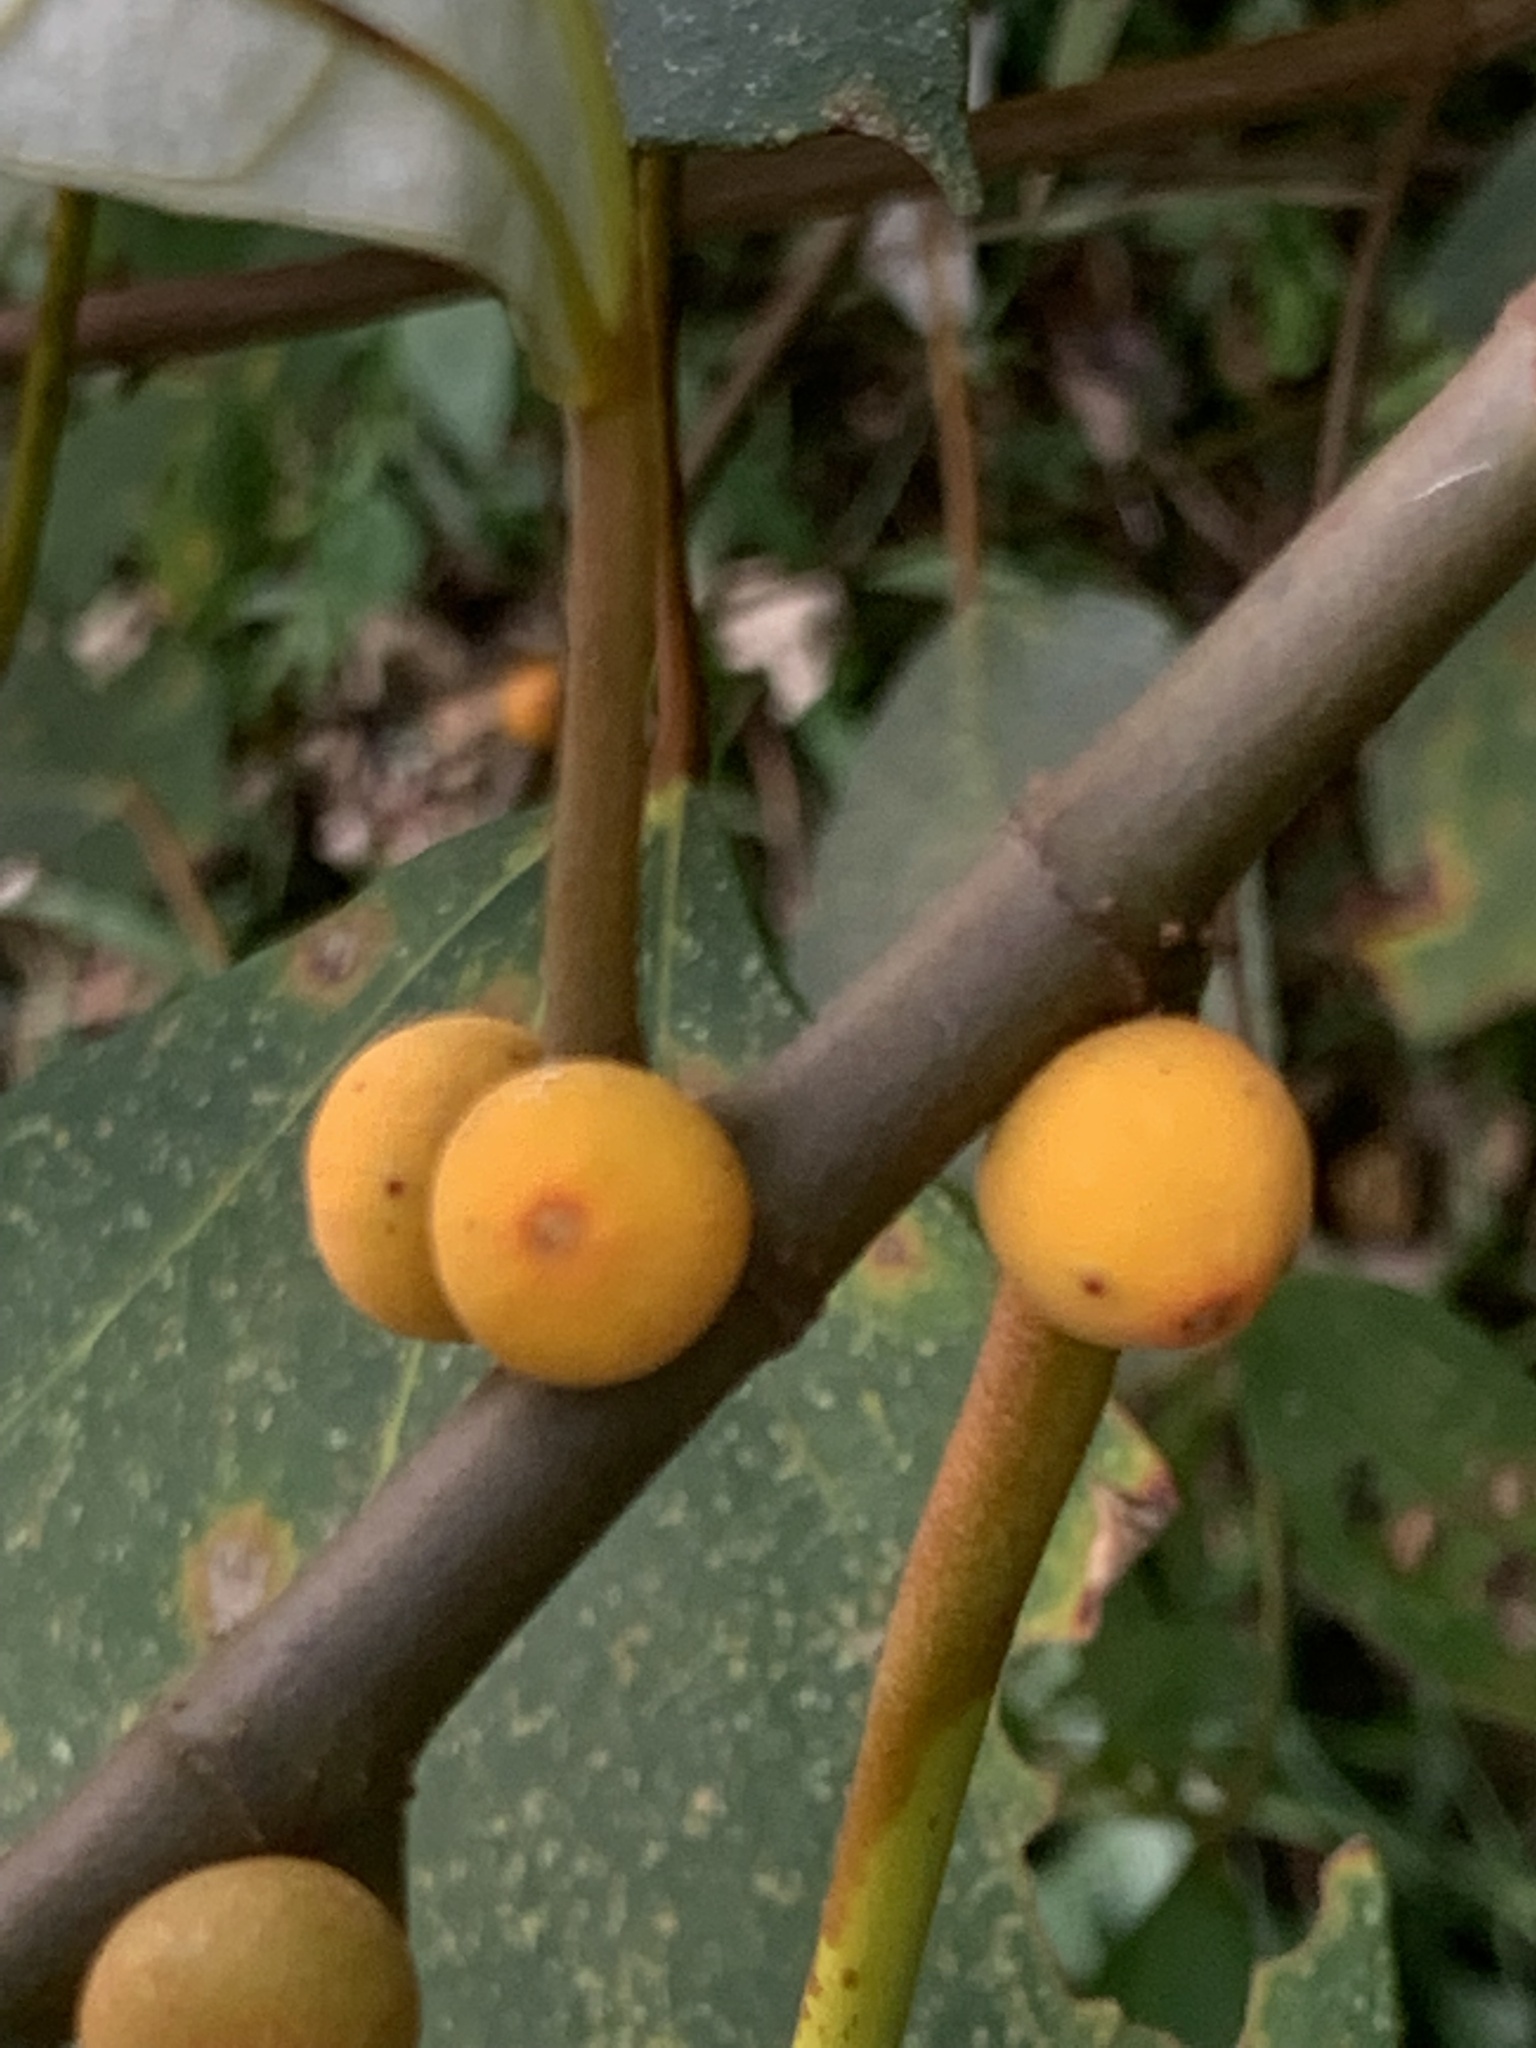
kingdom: Plantae
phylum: Tracheophyta
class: Magnoliopsida
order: Rosales
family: Moraceae
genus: Ficus
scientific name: Ficus grossularioides
